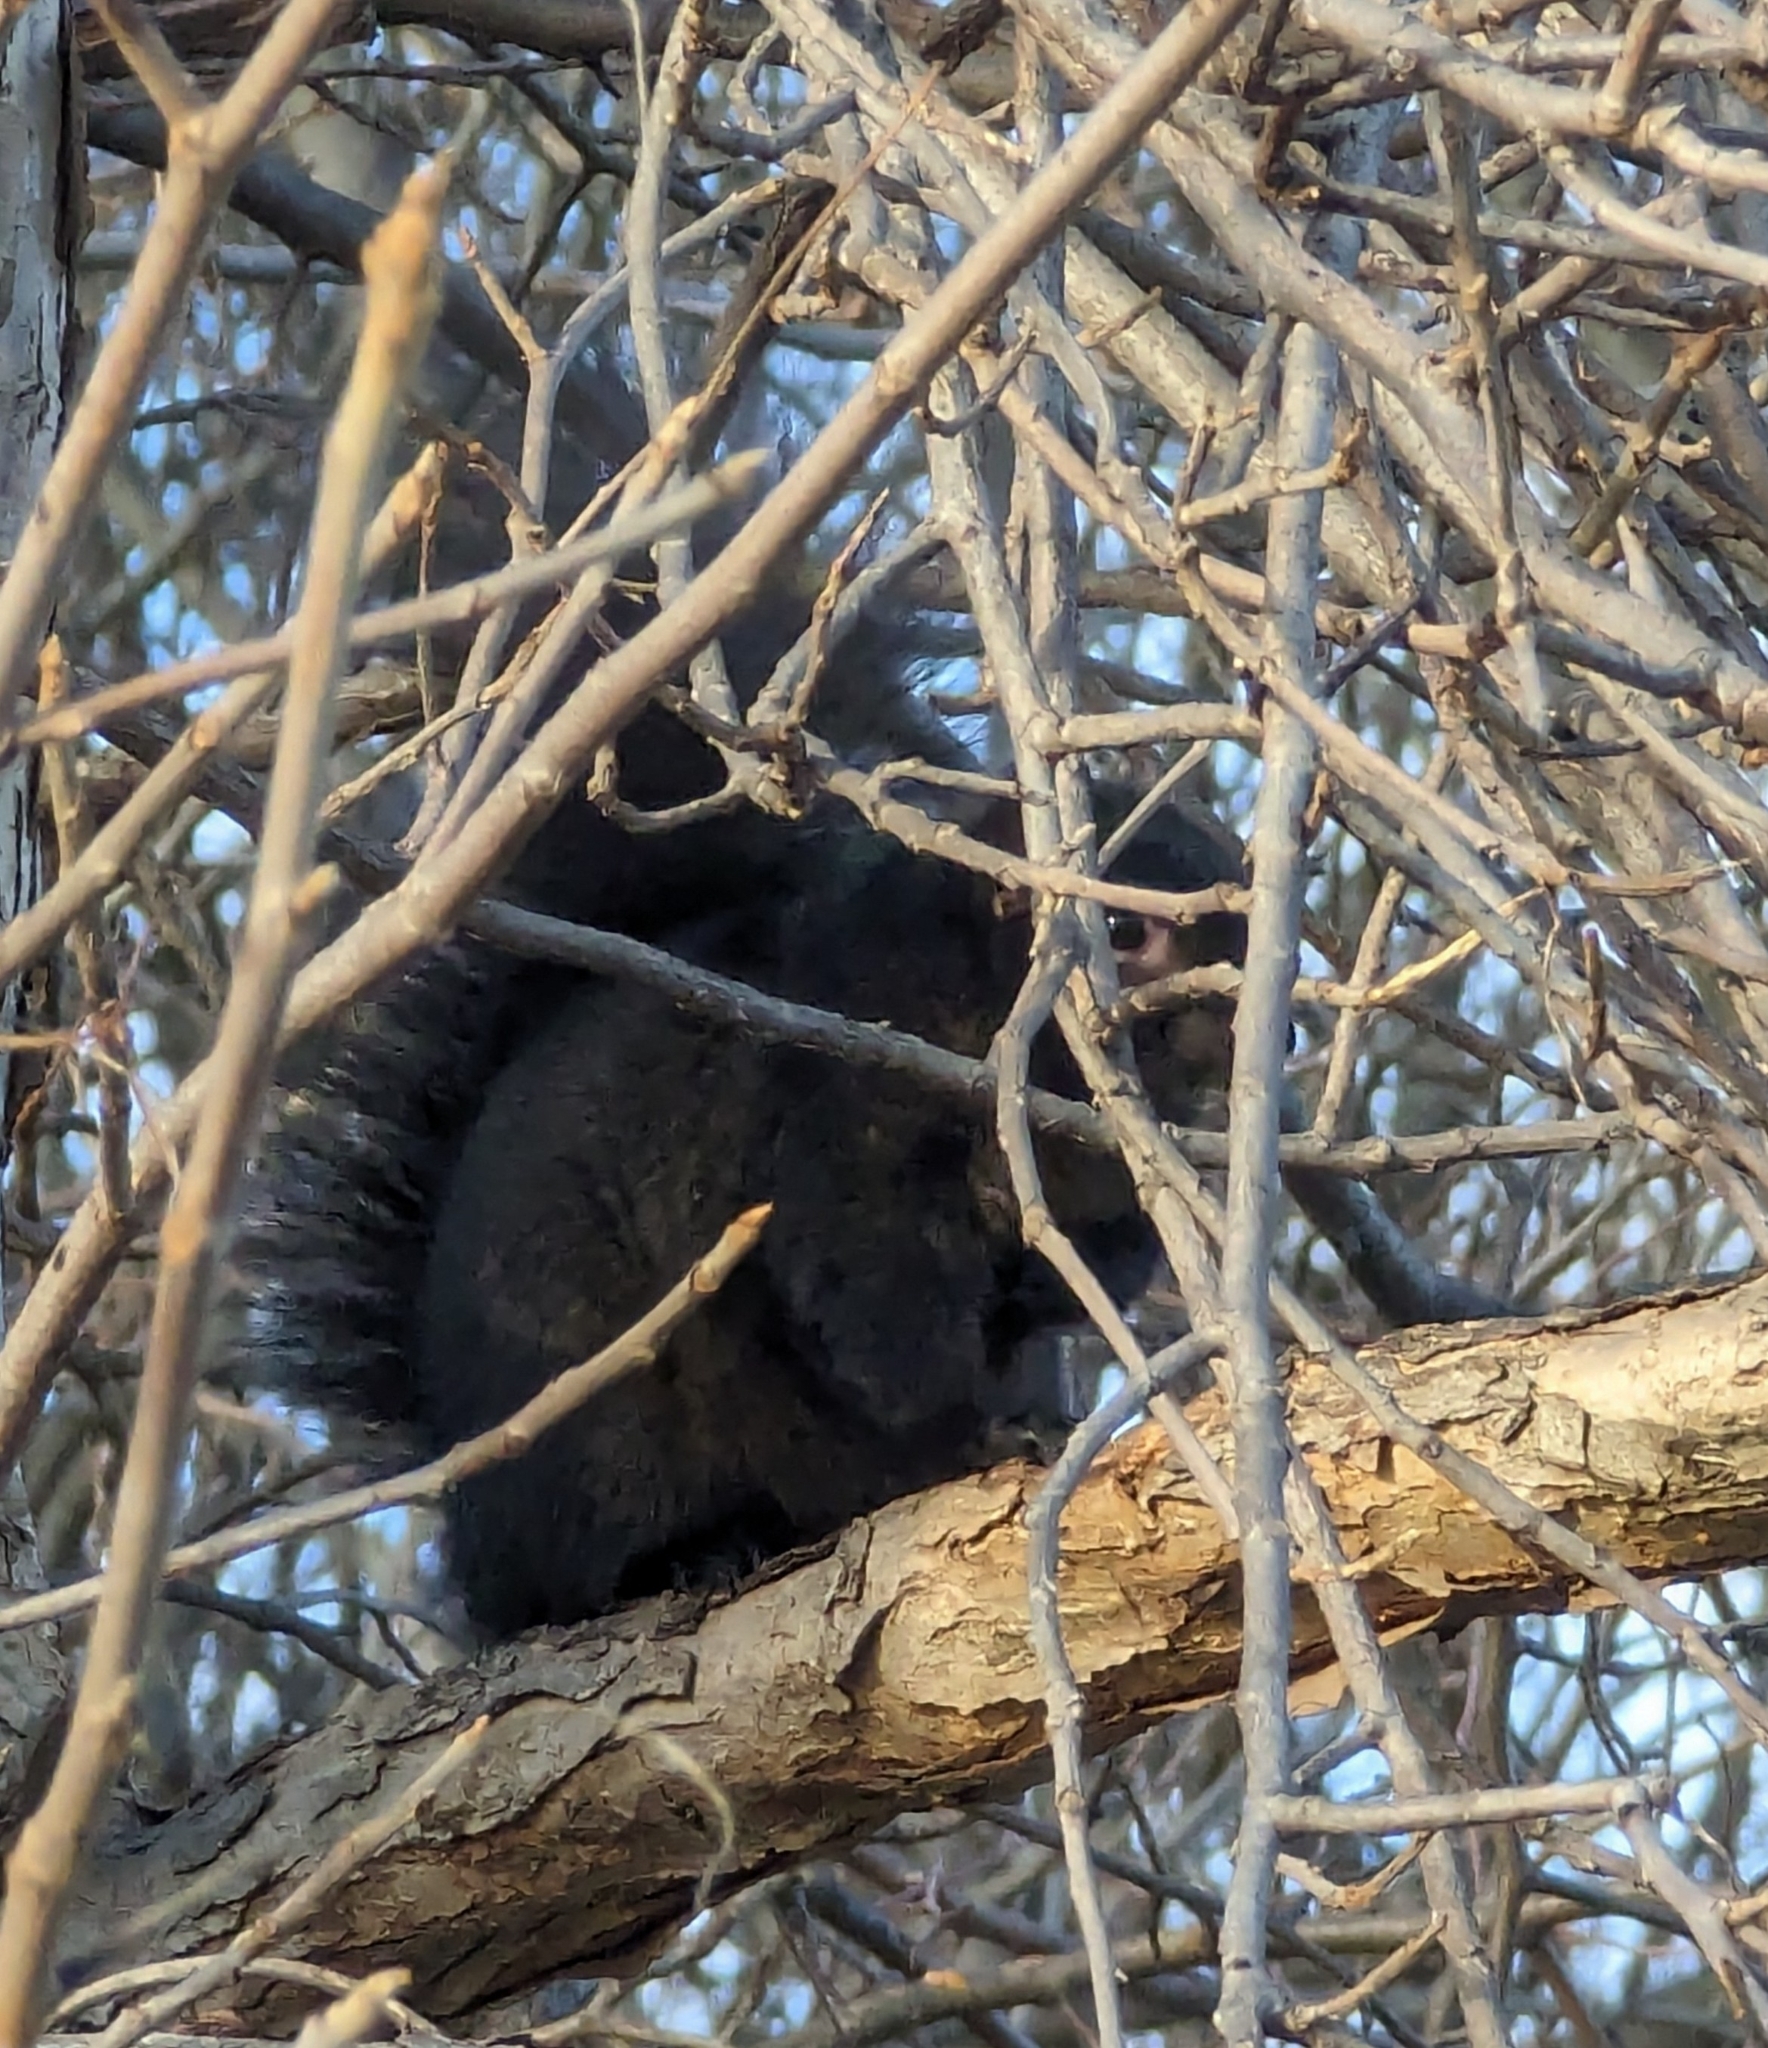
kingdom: Animalia
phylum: Chordata
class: Mammalia
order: Rodentia
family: Sciuridae
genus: Sciurus
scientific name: Sciurus carolinensis
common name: Eastern gray squirrel
